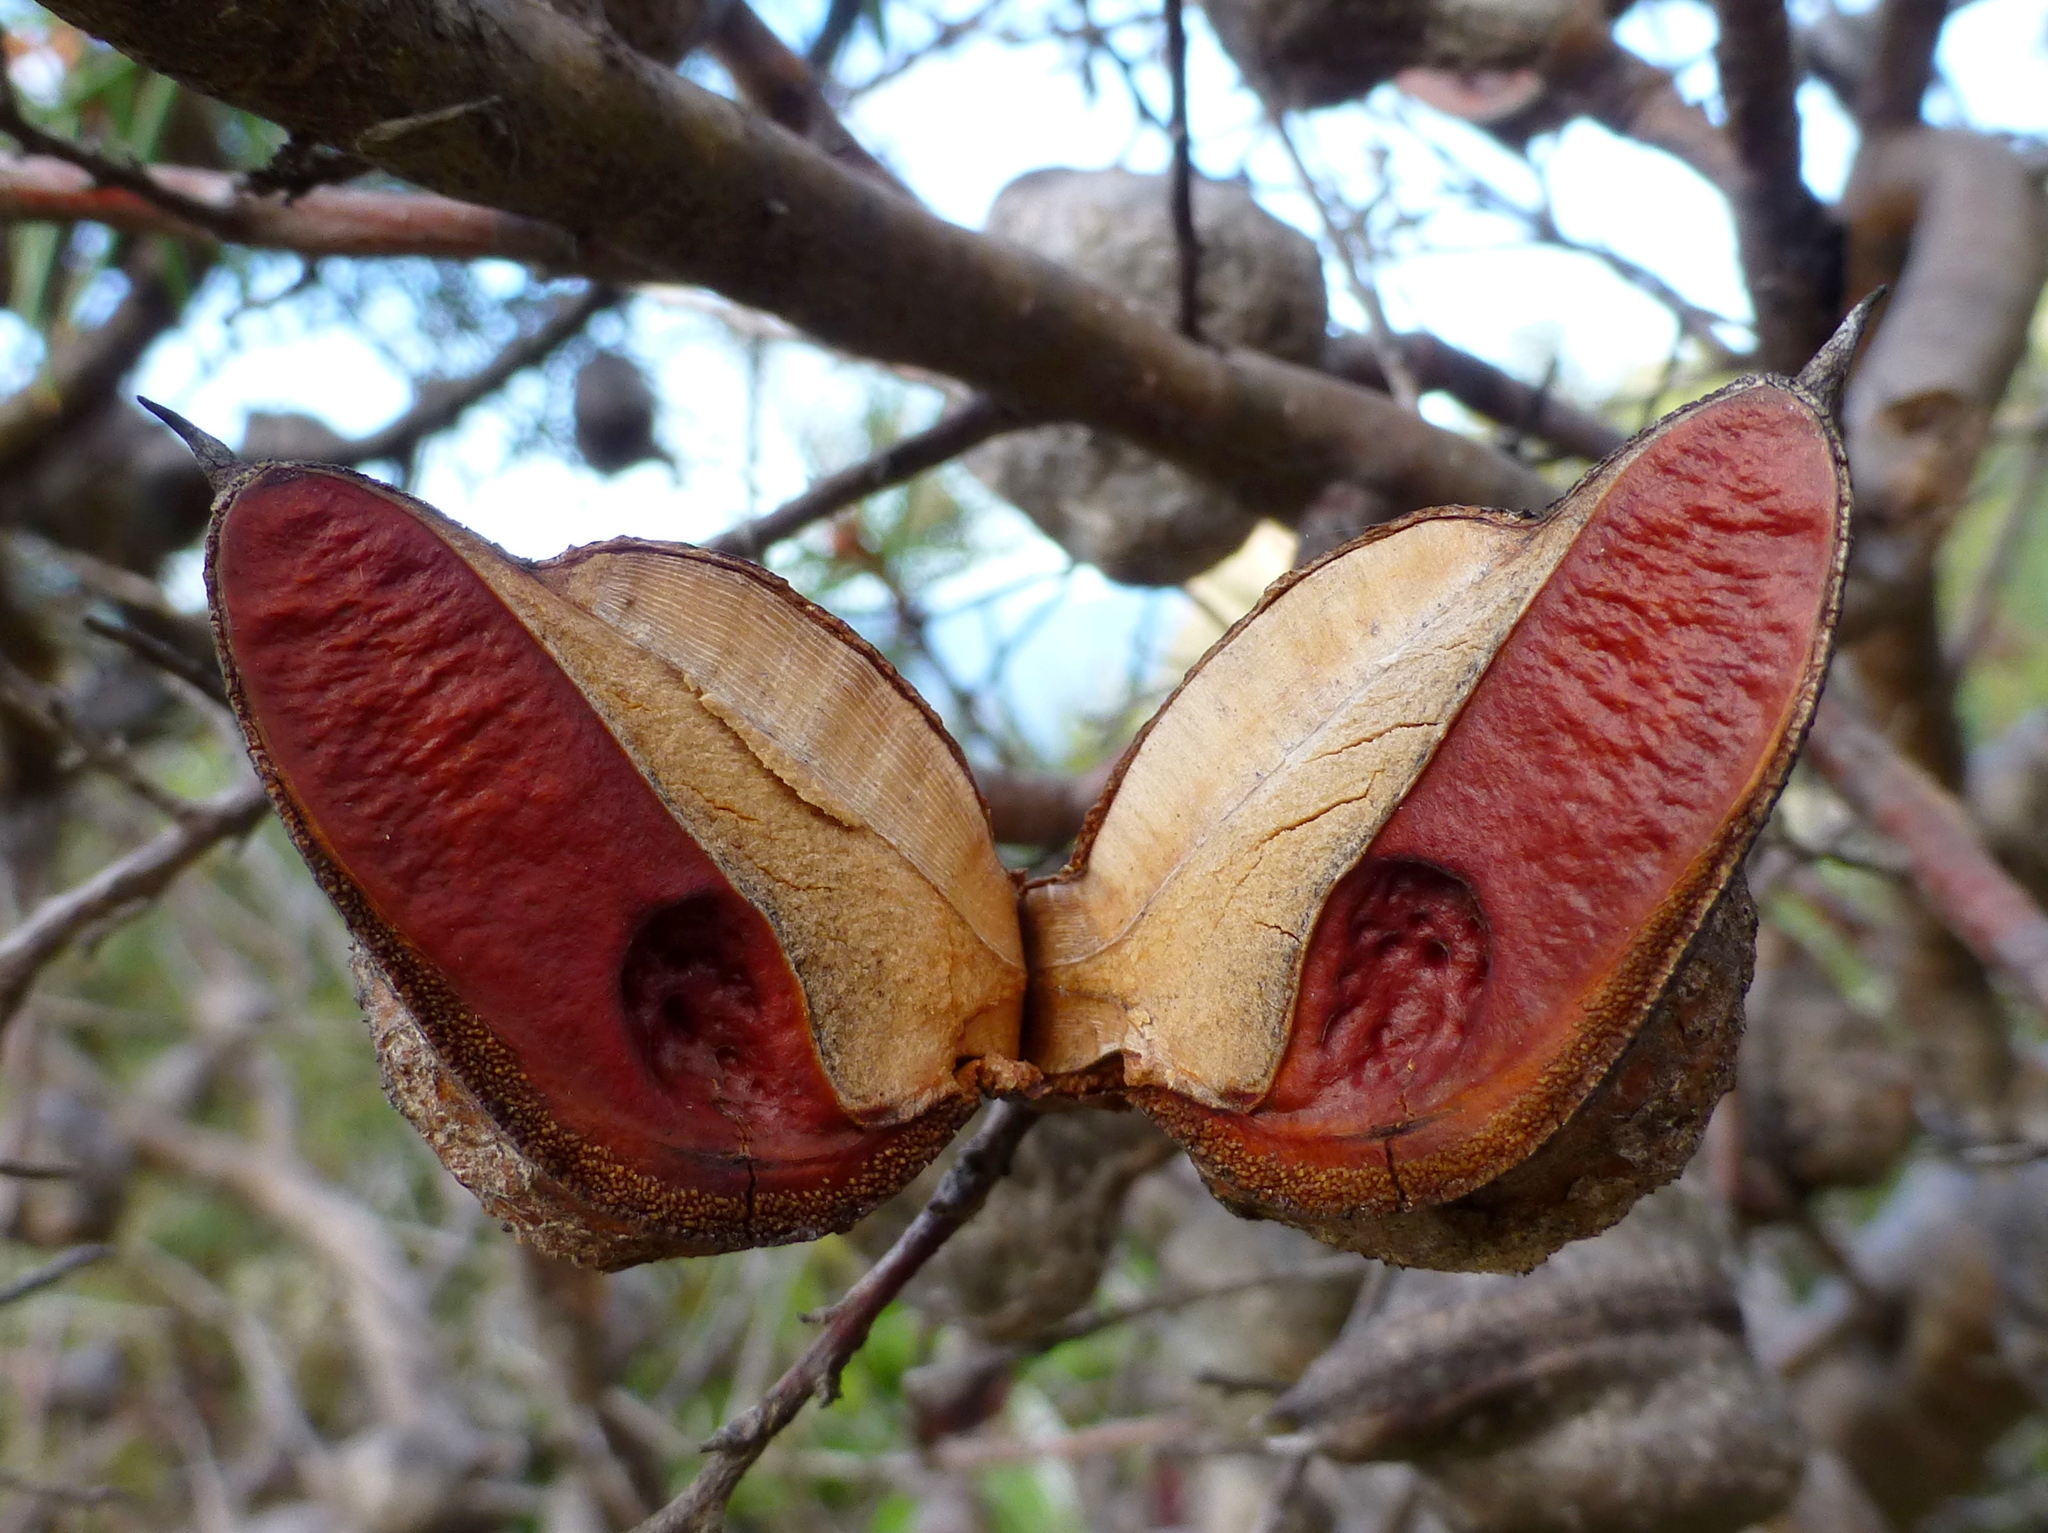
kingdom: Plantae
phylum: Tracheophyta
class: Magnoliopsida
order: Proteales
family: Proteaceae
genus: Hakea
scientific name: Hakea sericea
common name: Needle bush
